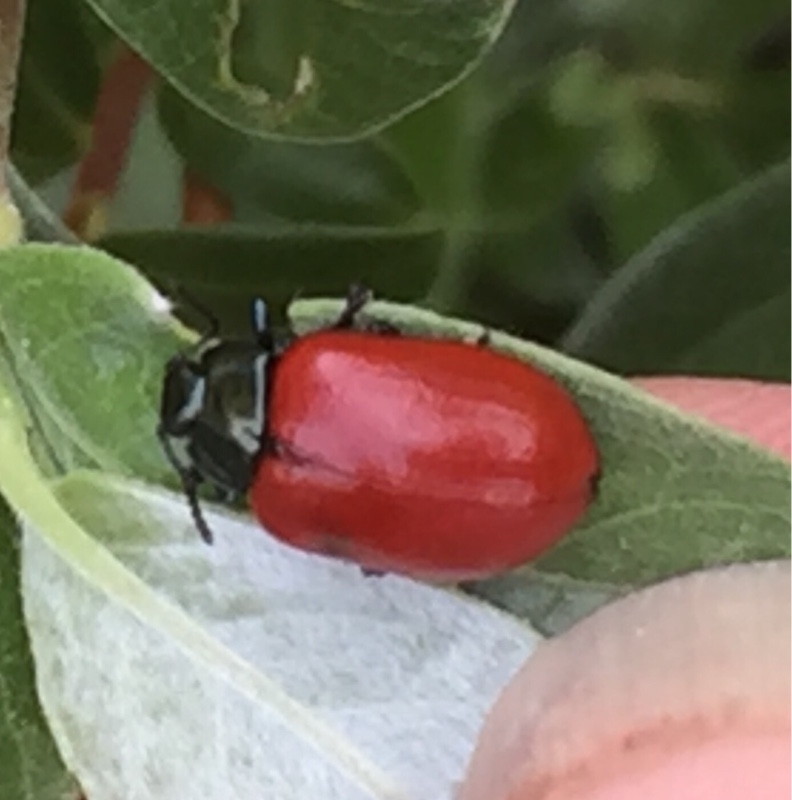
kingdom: Animalia
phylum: Arthropoda
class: Insecta
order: Coleoptera
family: Chrysomelidae
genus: Chrysomela
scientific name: Chrysomela populi
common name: Red poplar leaf beetle
